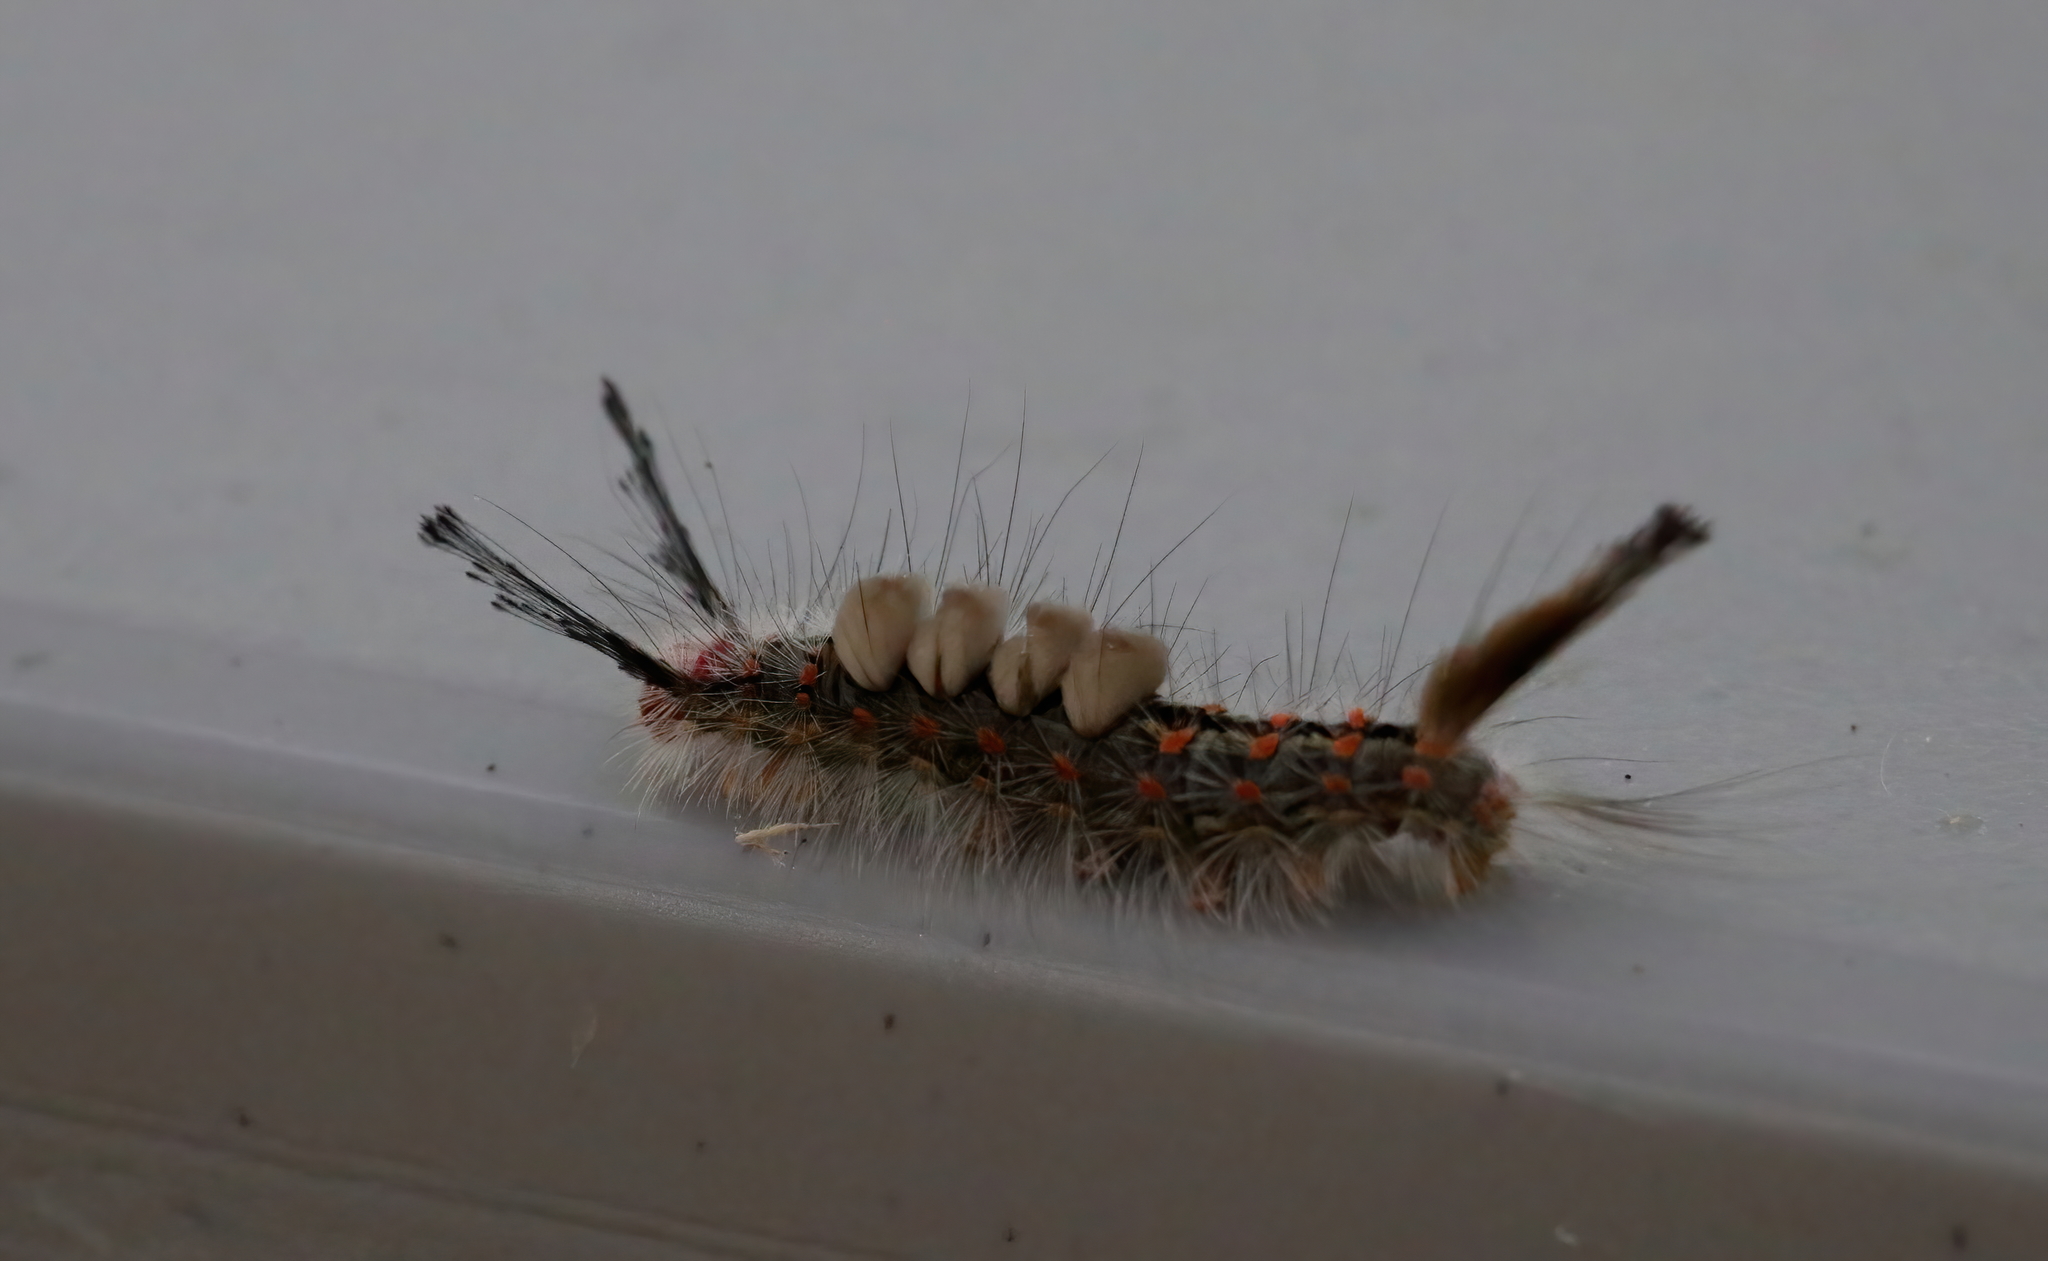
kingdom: Animalia
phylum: Arthropoda
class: Insecta
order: Lepidoptera
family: Erebidae
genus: Orgyia
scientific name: Orgyia detrita
